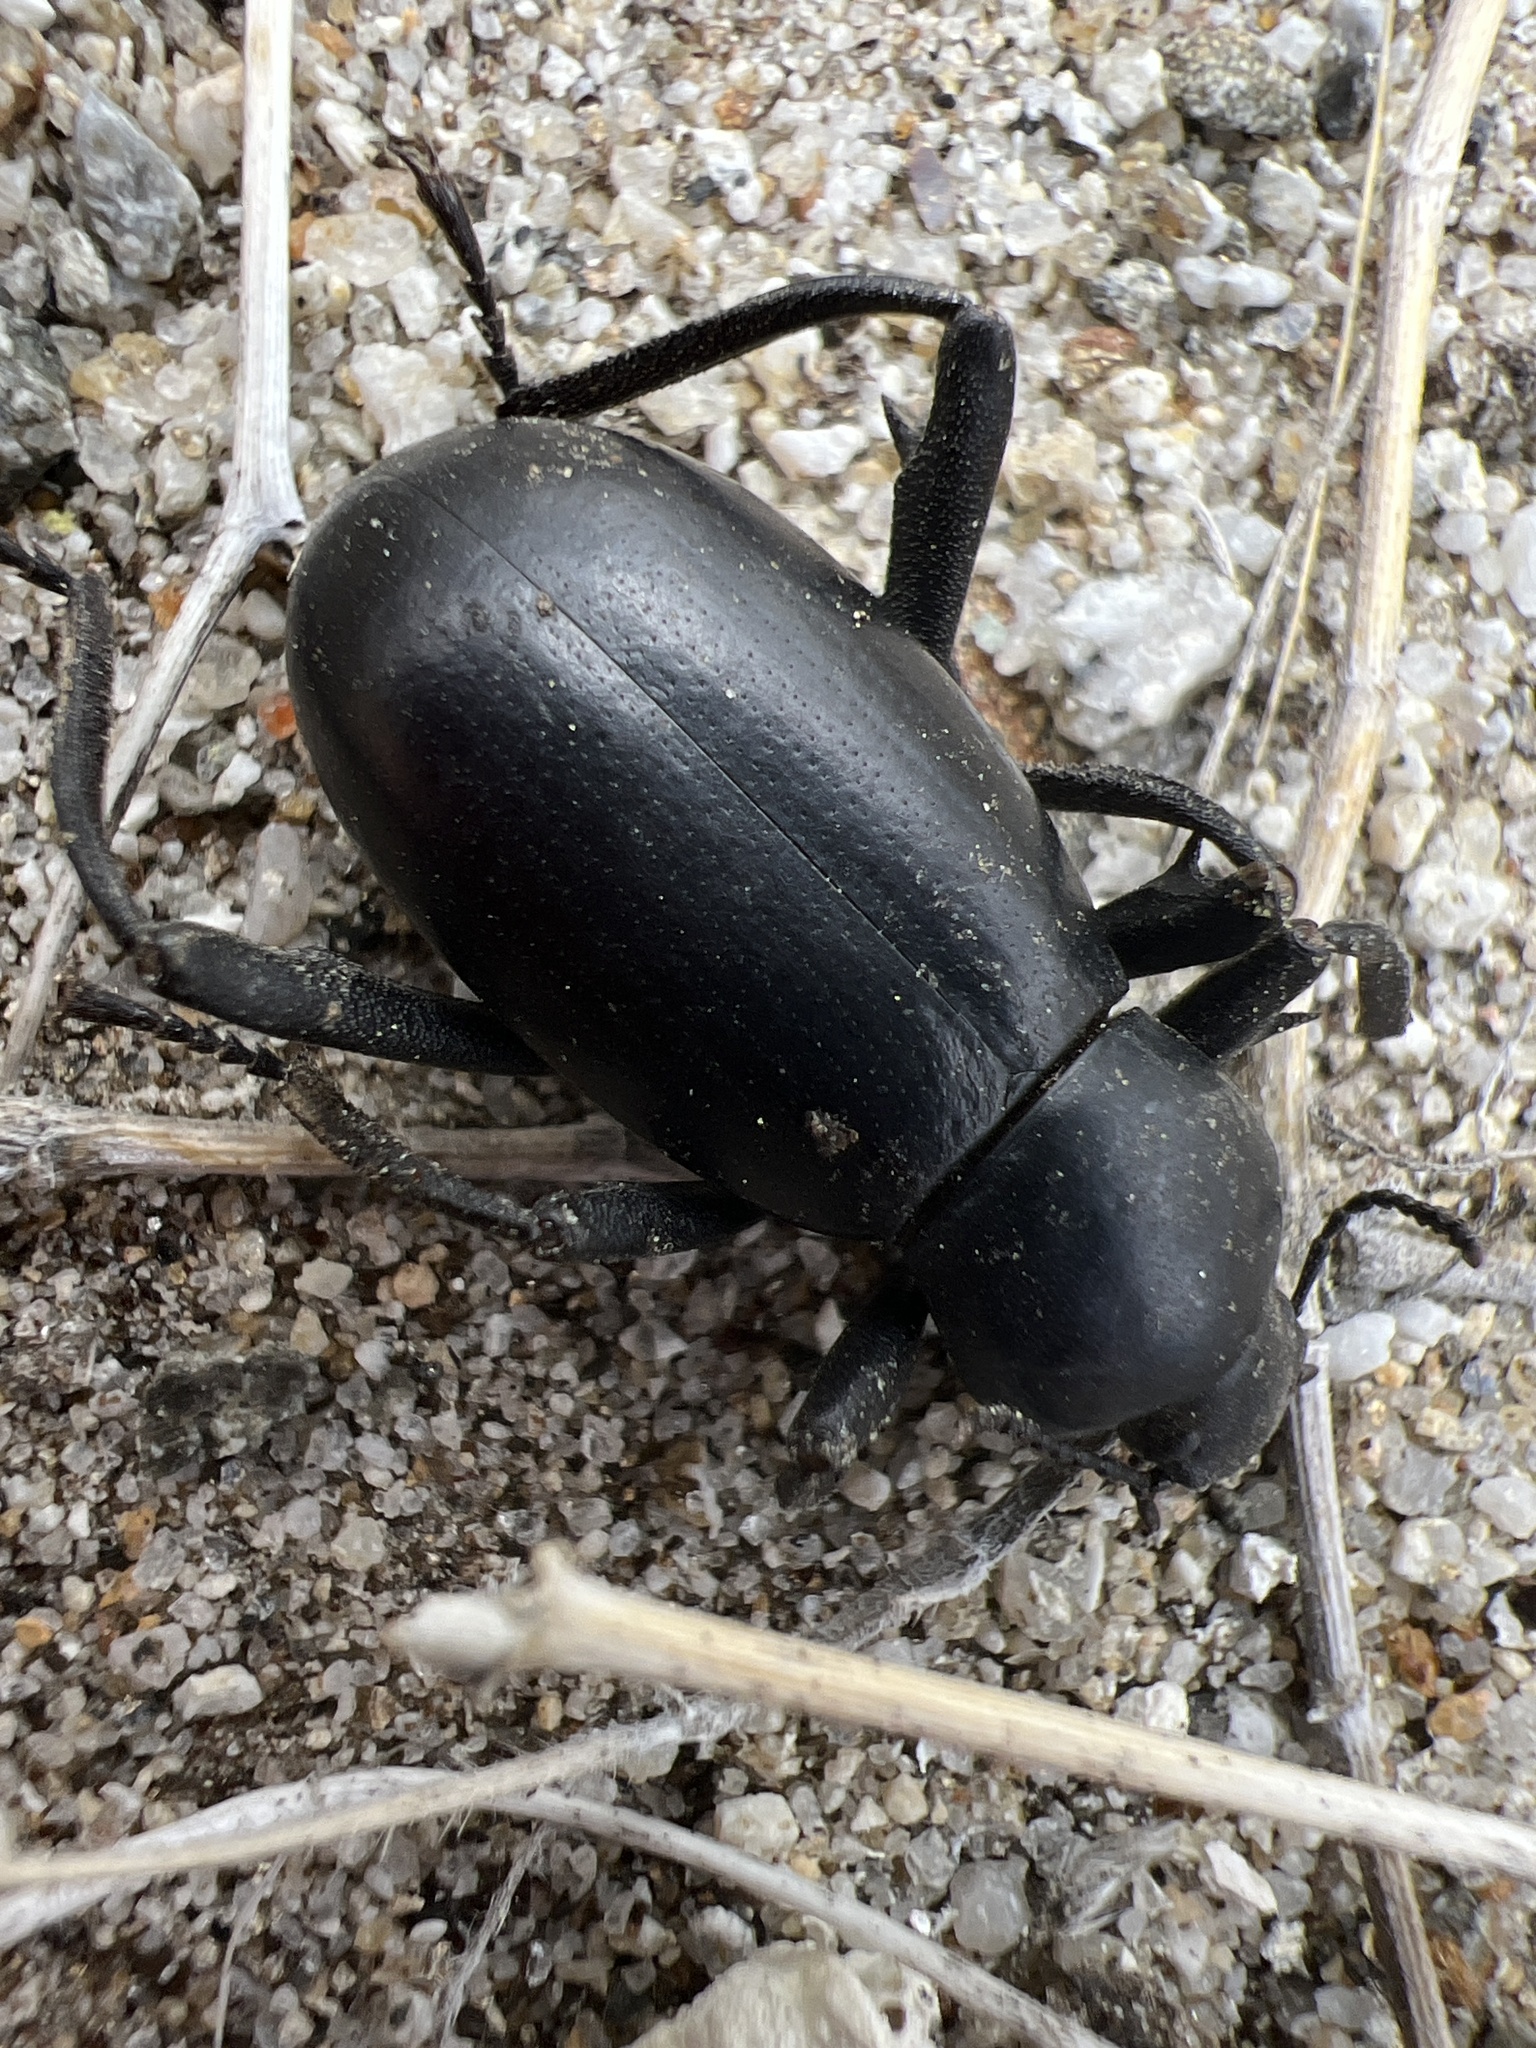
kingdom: Animalia
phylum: Arthropoda
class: Insecta
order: Coleoptera
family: Tenebrionidae
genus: Eleodes
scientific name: Eleodes armata
